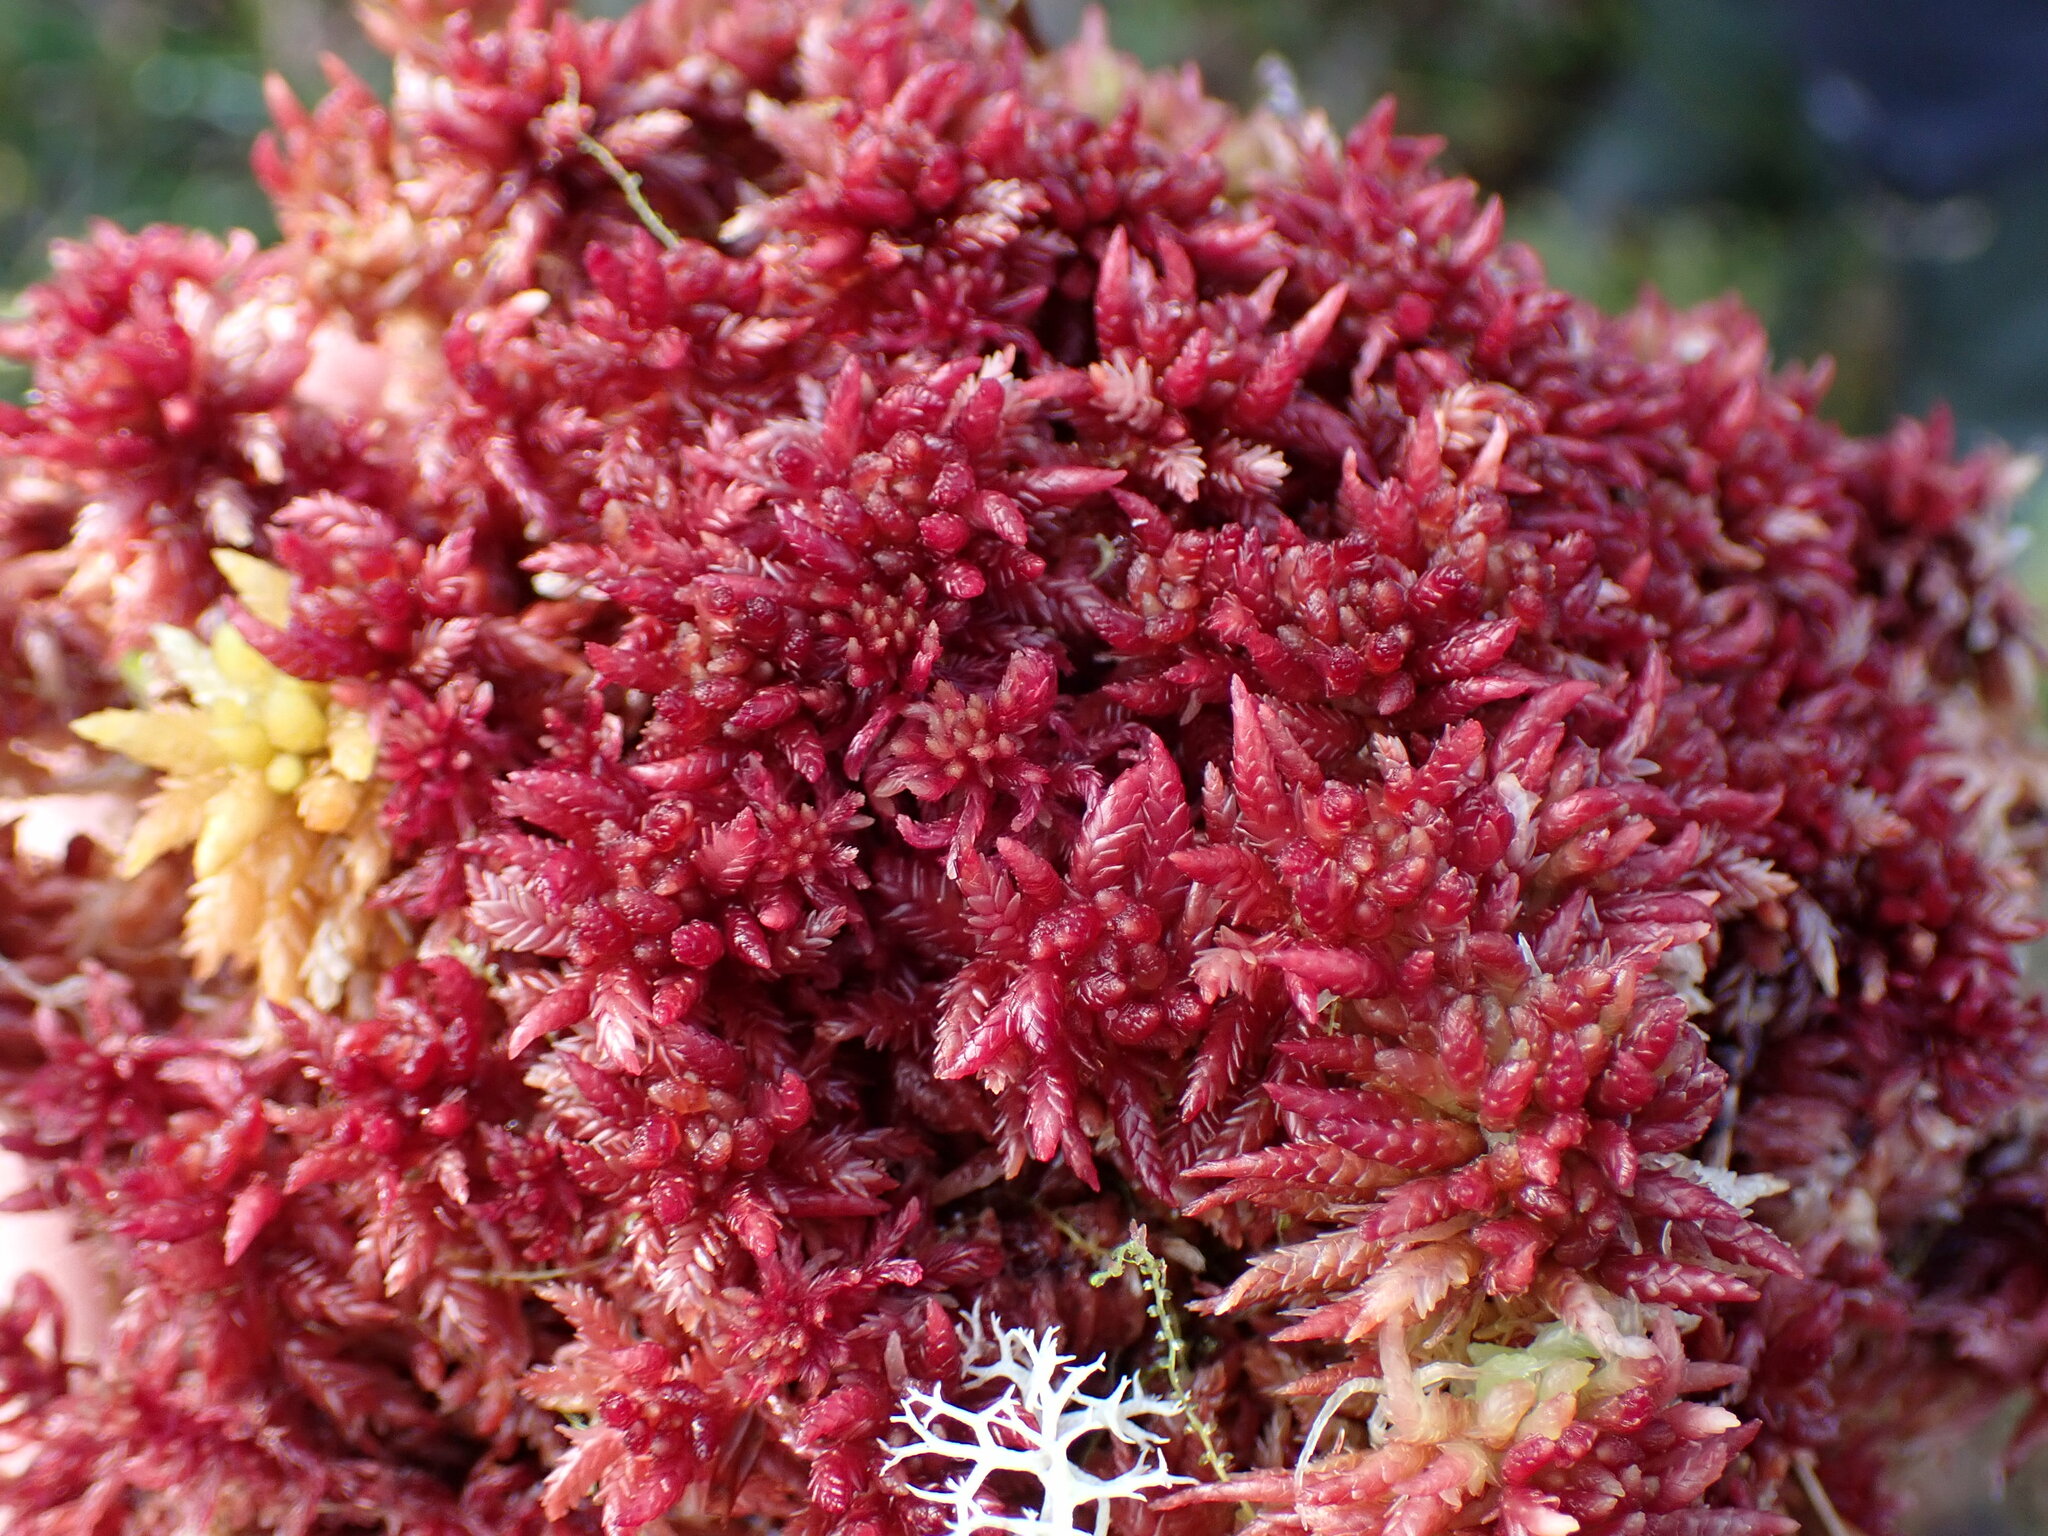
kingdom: Plantae
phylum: Bryophyta
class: Sphagnopsida
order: Sphagnales
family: Sphagnaceae
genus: Sphagnum
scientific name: Sphagnum divinum
